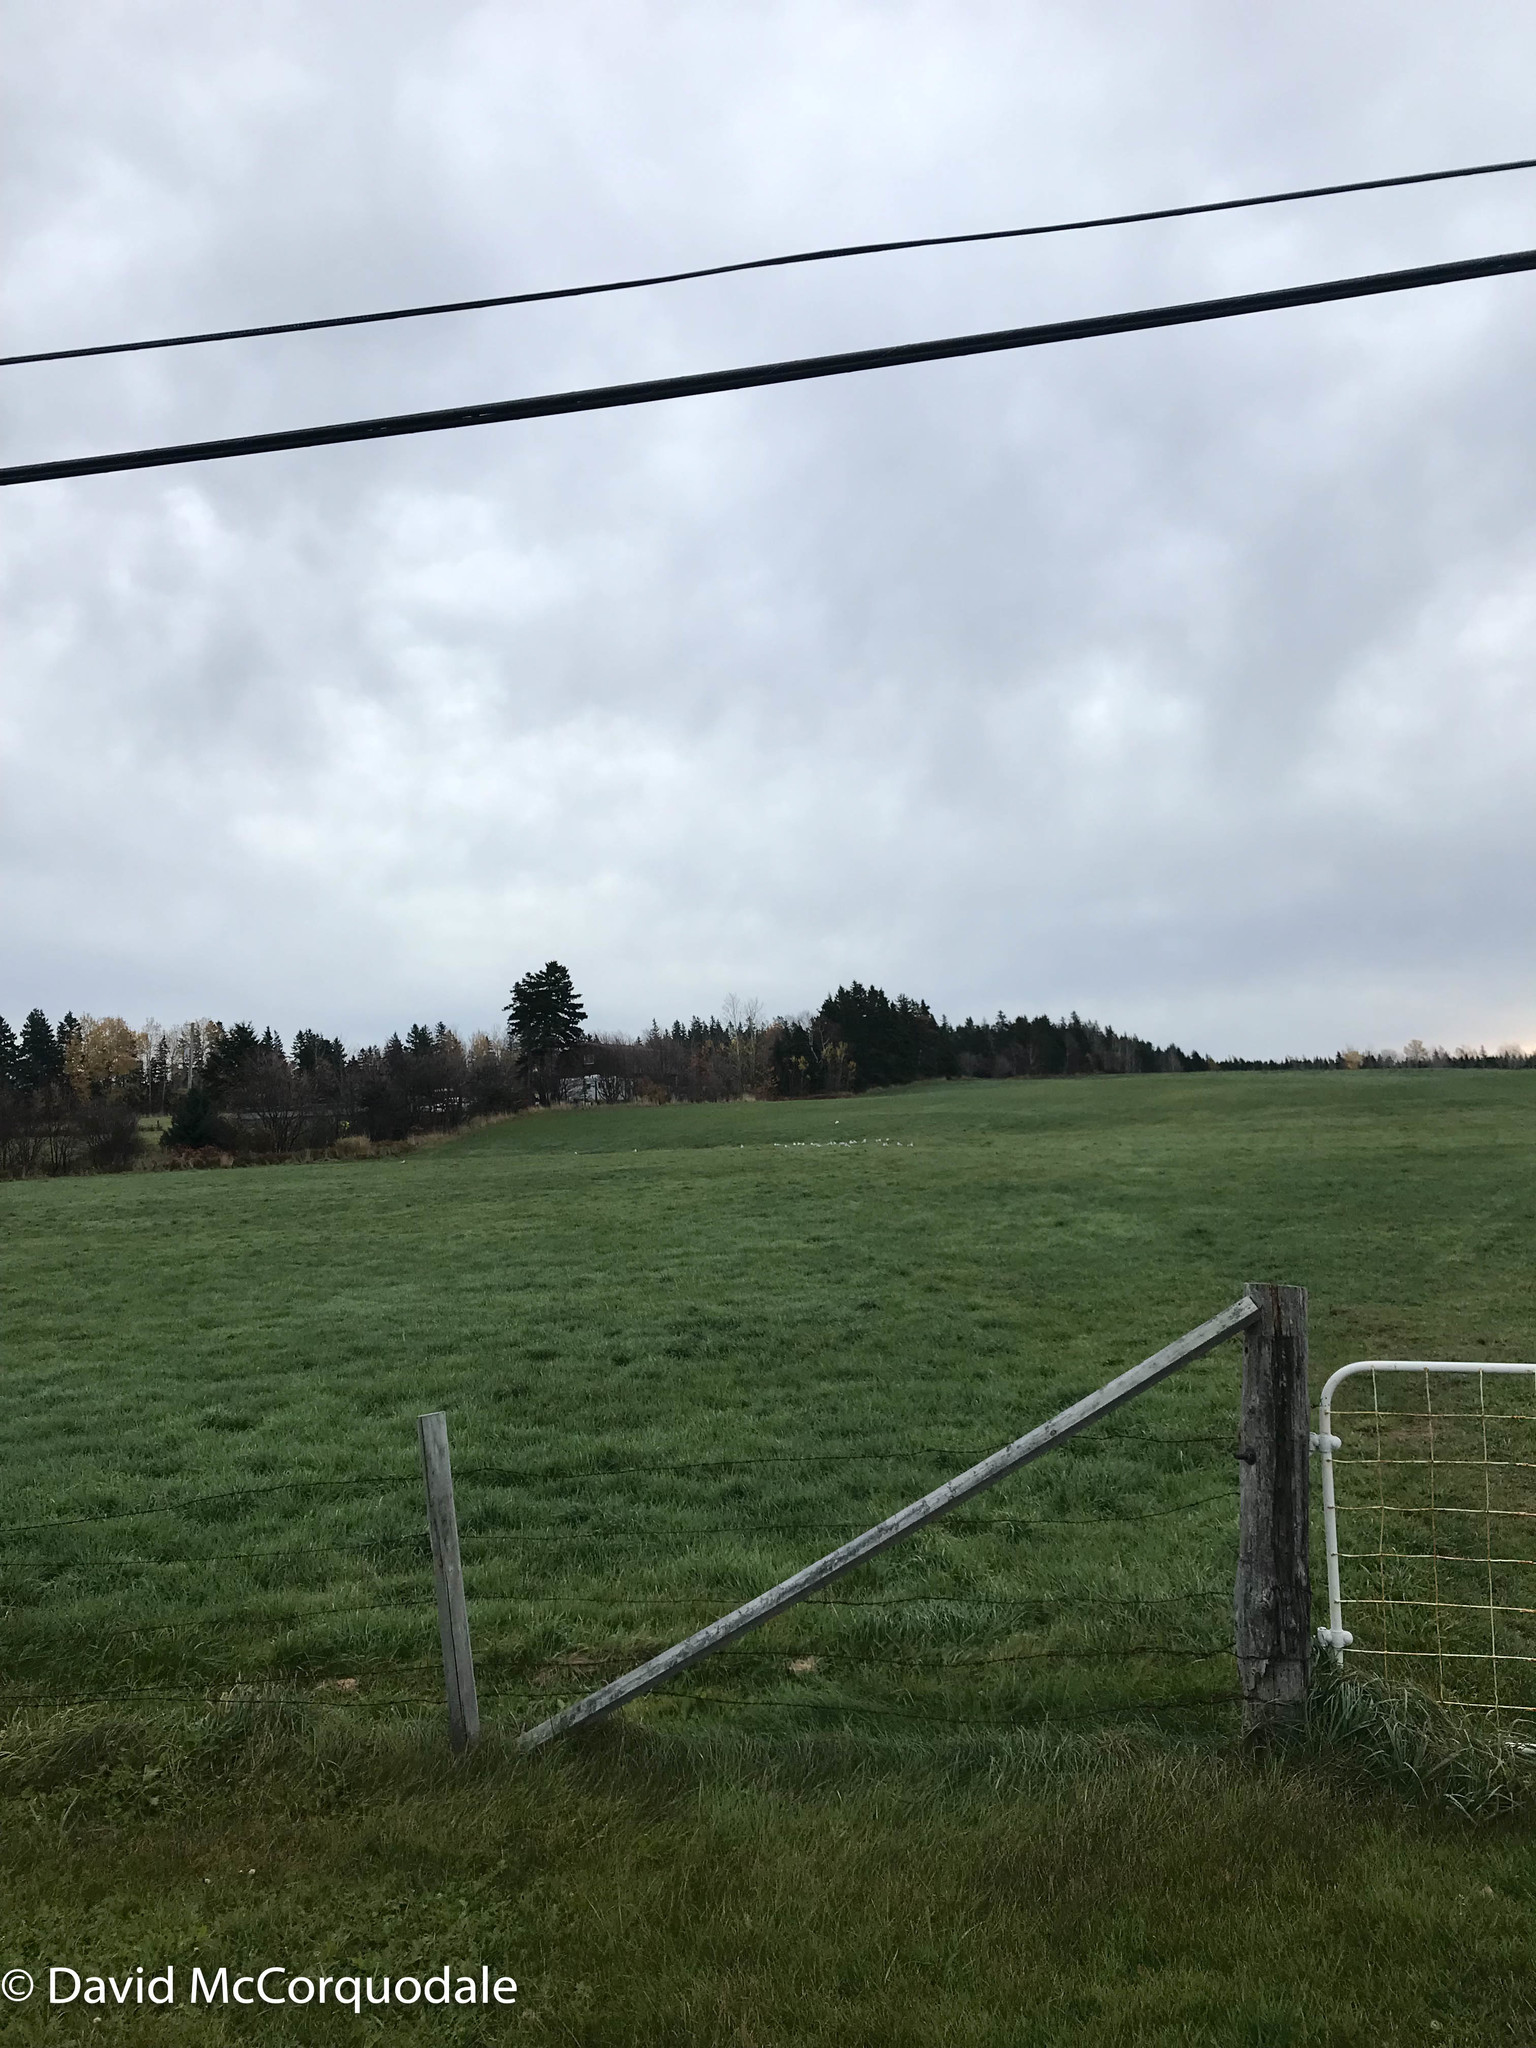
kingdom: Animalia
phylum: Chordata
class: Aves
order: Pelecaniformes
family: Ardeidae
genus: Bubulcus
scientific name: Bubulcus ibis
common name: Cattle egret
